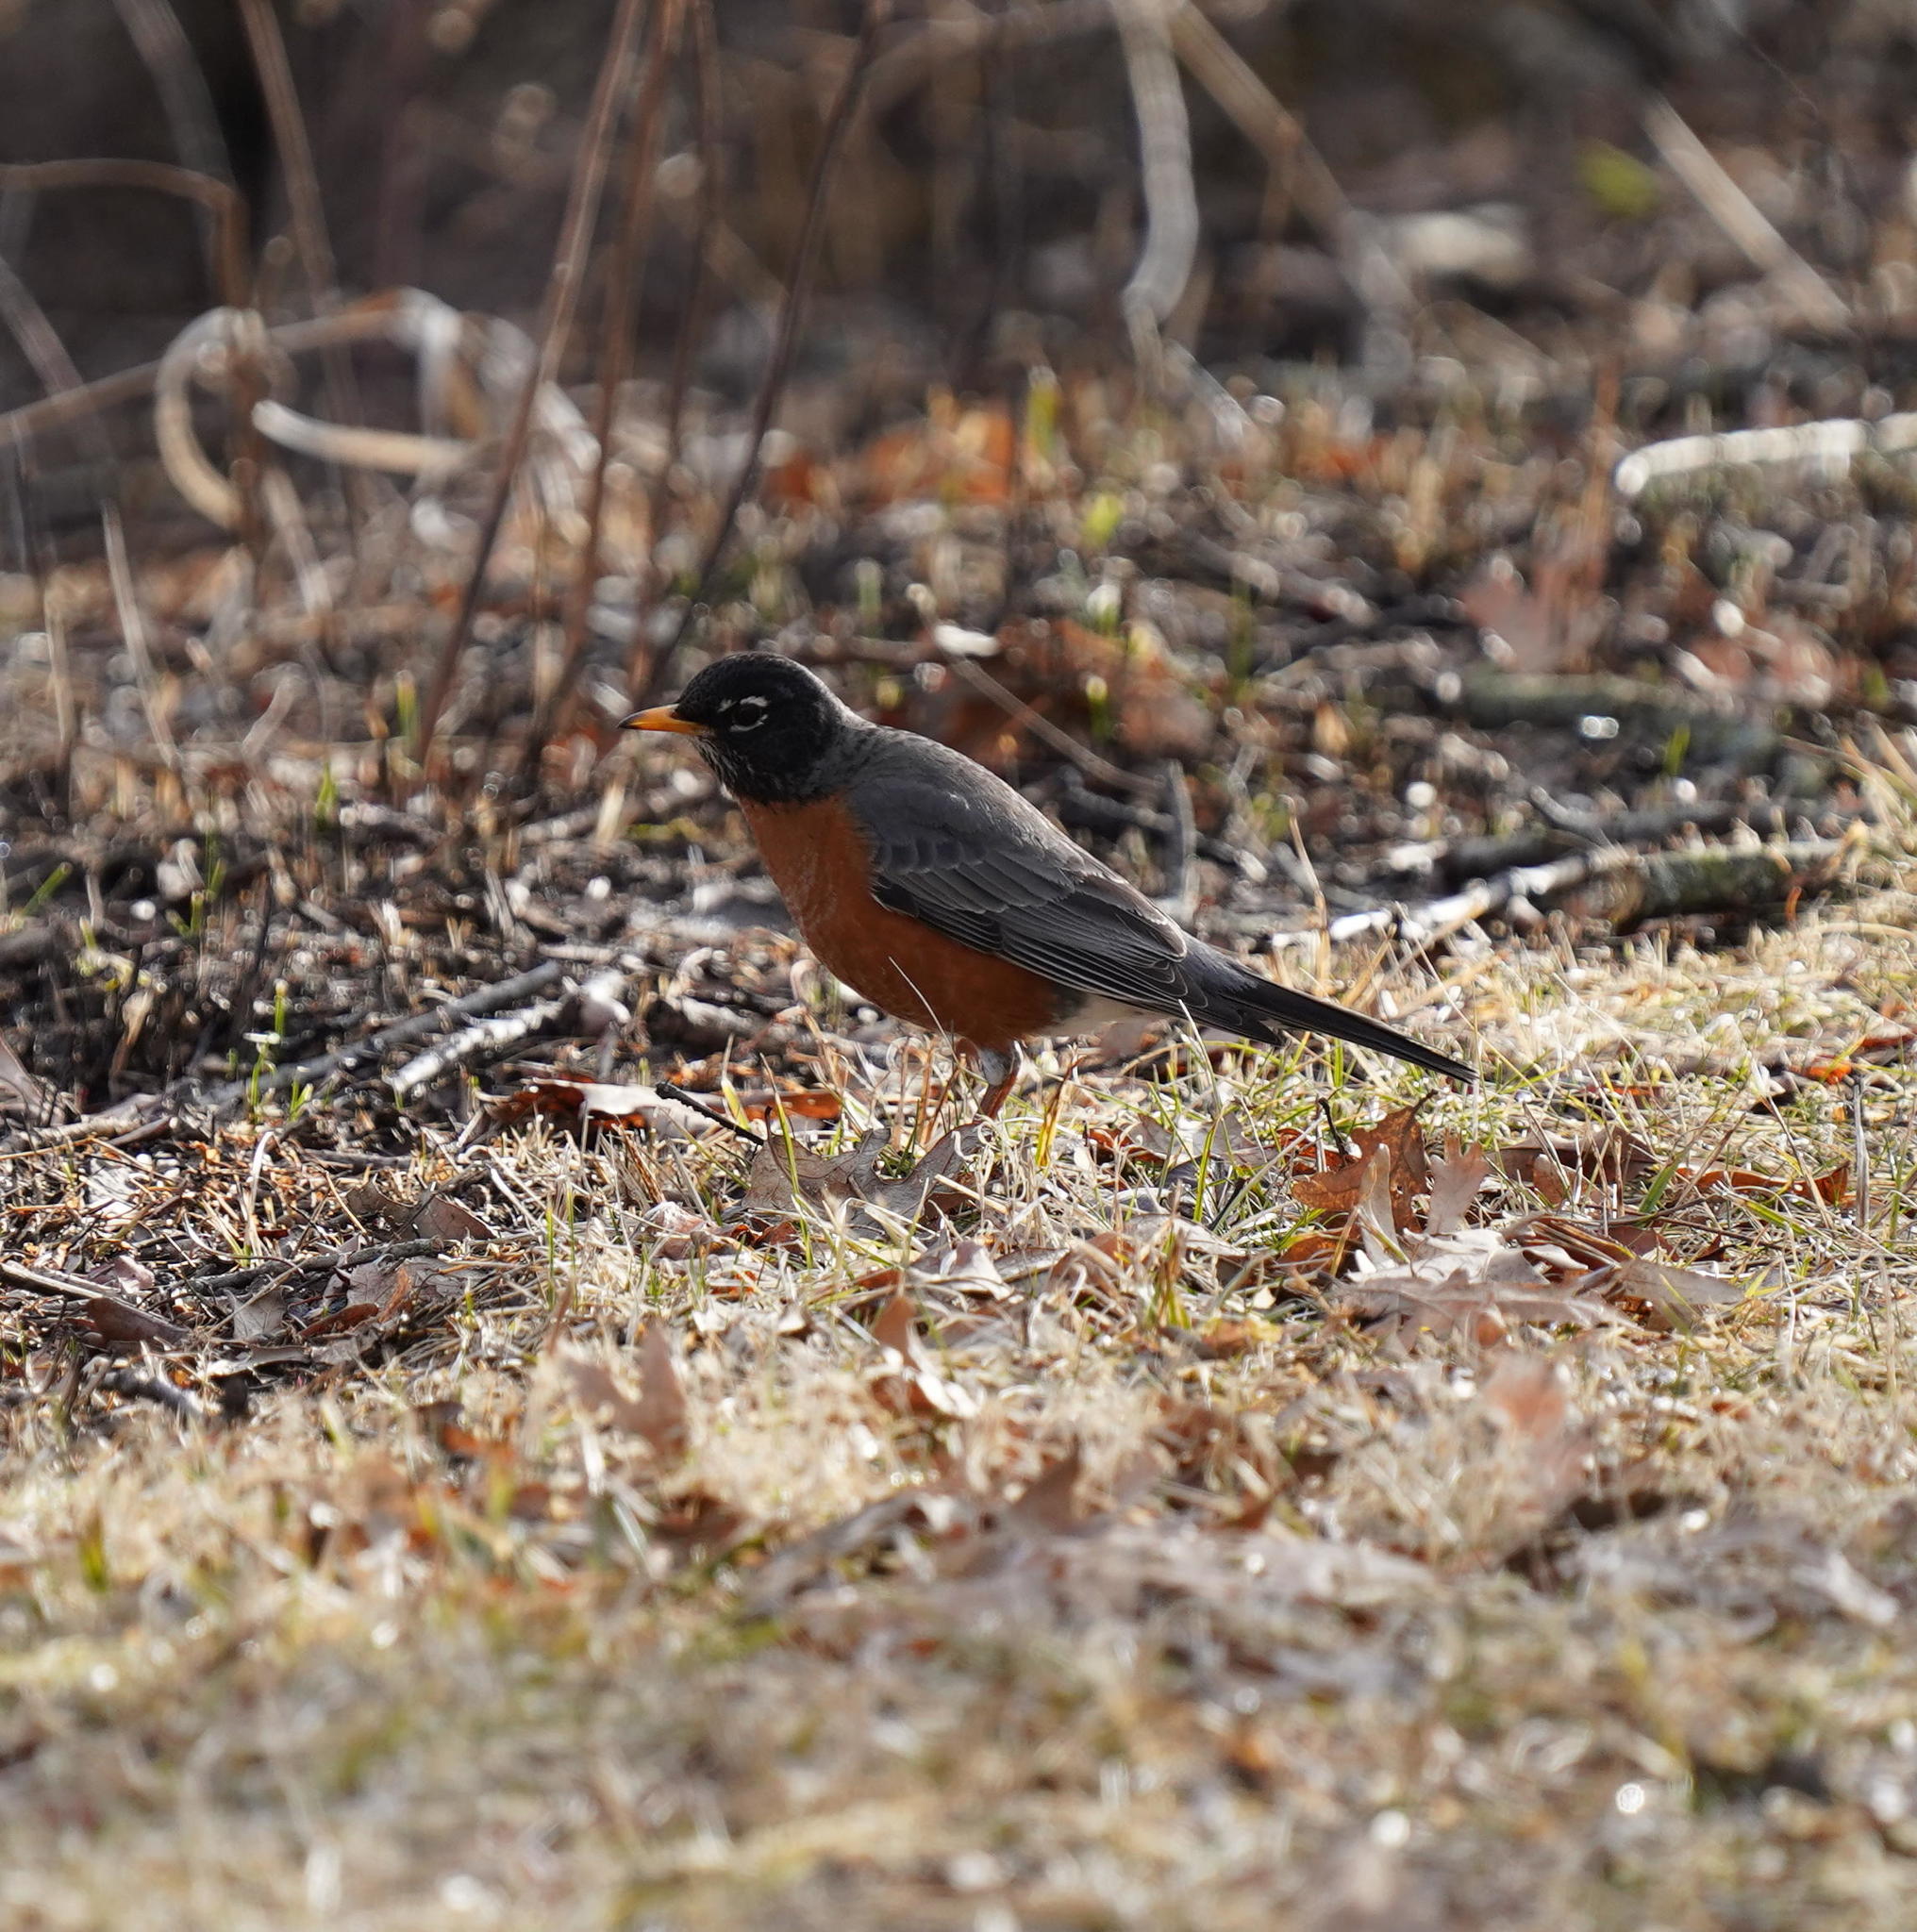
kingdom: Animalia
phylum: Chordata
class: Aves
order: Passeriformes
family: Turdidae
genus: Turdus
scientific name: Turdus migratorius
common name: American robin
